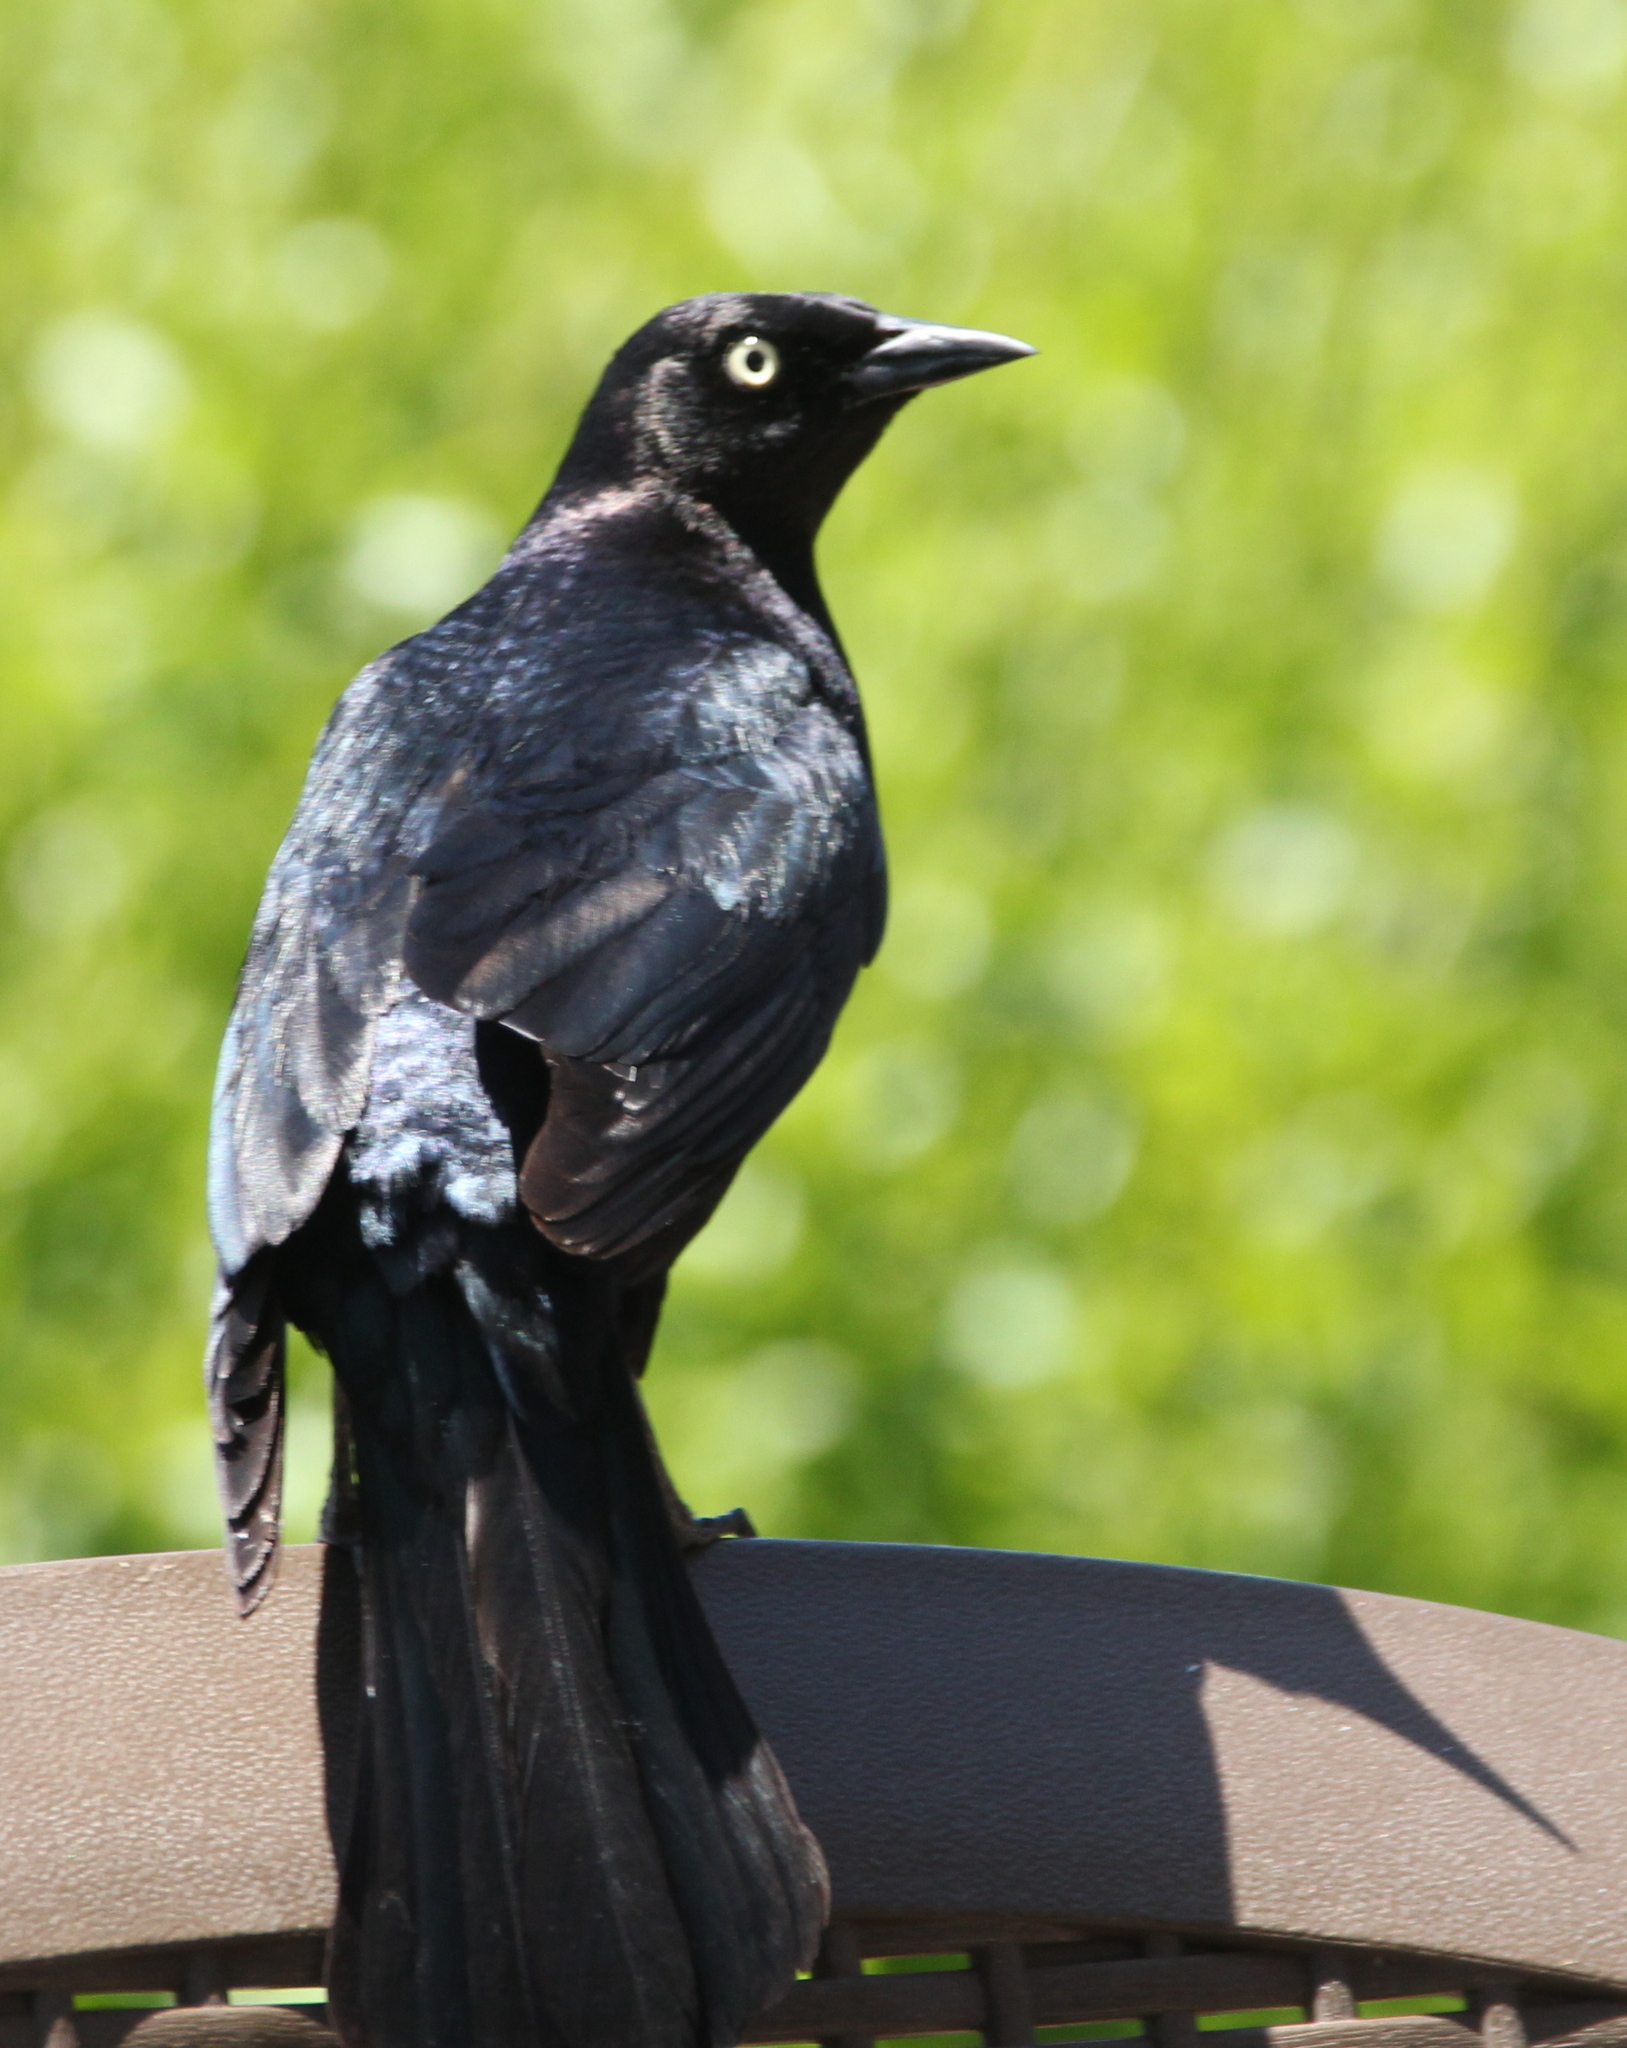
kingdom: Animalia
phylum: Chordata
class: Aves
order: Passeriformes
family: Icteridae
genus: Euphagus
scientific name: Euphagus cyanocephalus
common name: Brewer's blackbird
